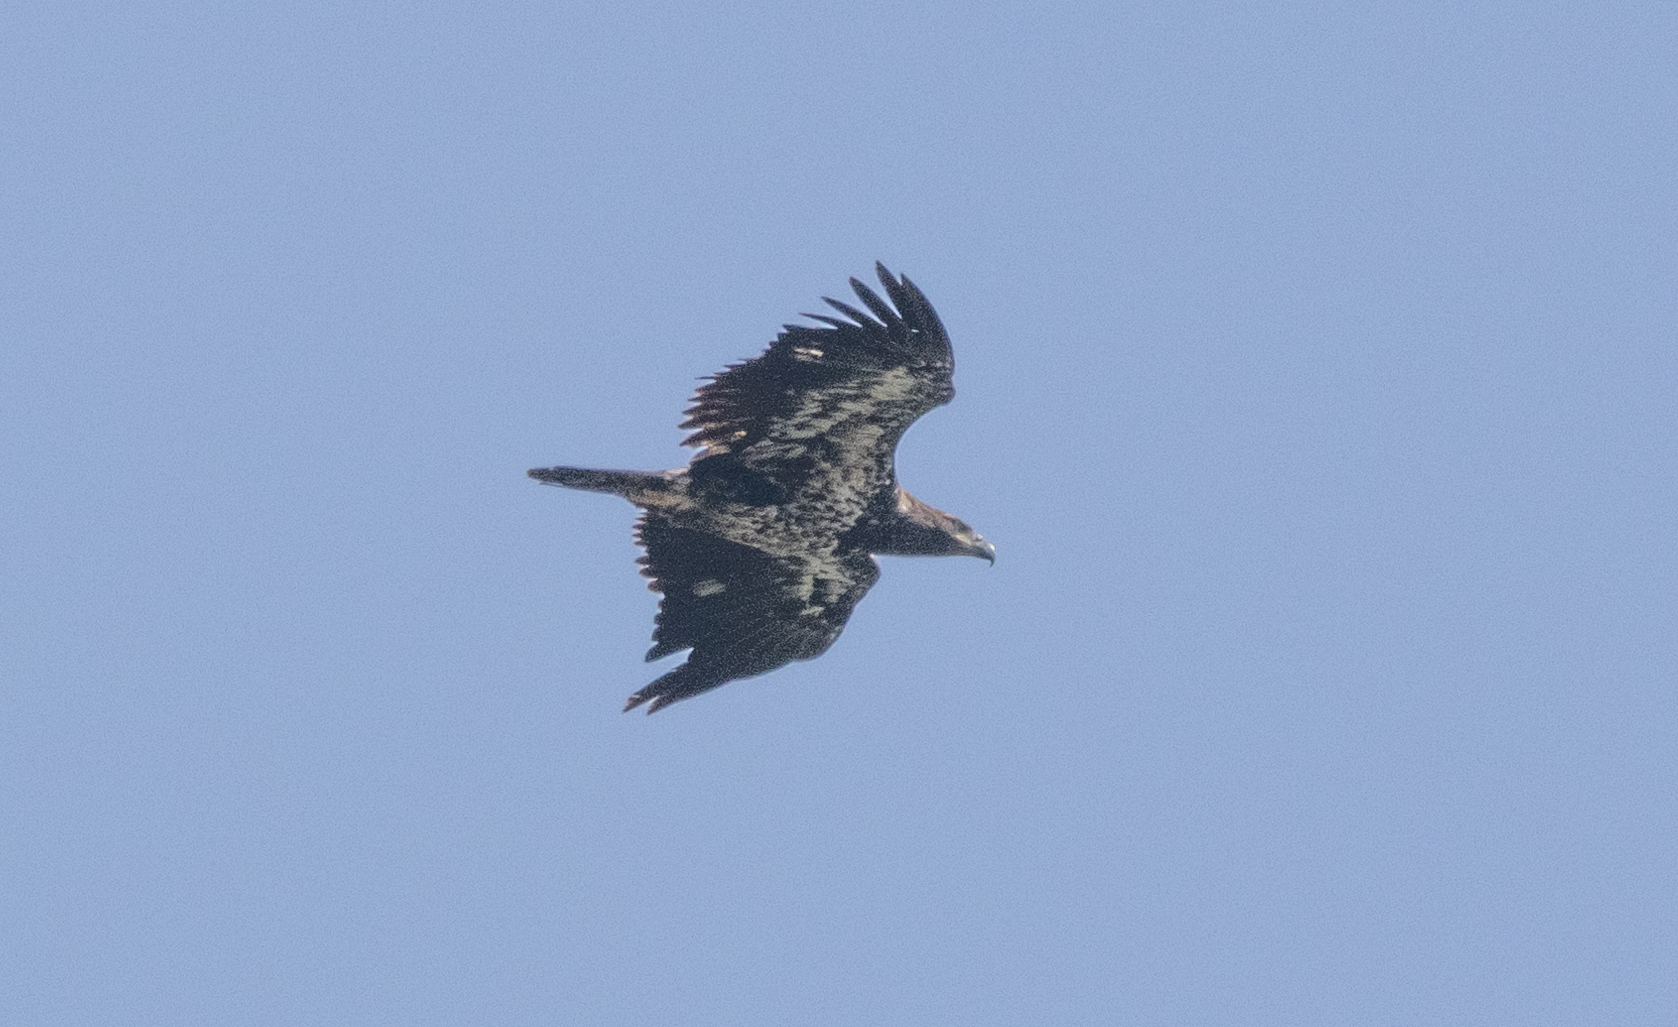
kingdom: Animalia
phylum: Chordata
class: Aves
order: Accipitriformes
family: Accipitridae
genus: Haliaeetus
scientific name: Haliaeetus leucocephalus
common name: Bald eagle
